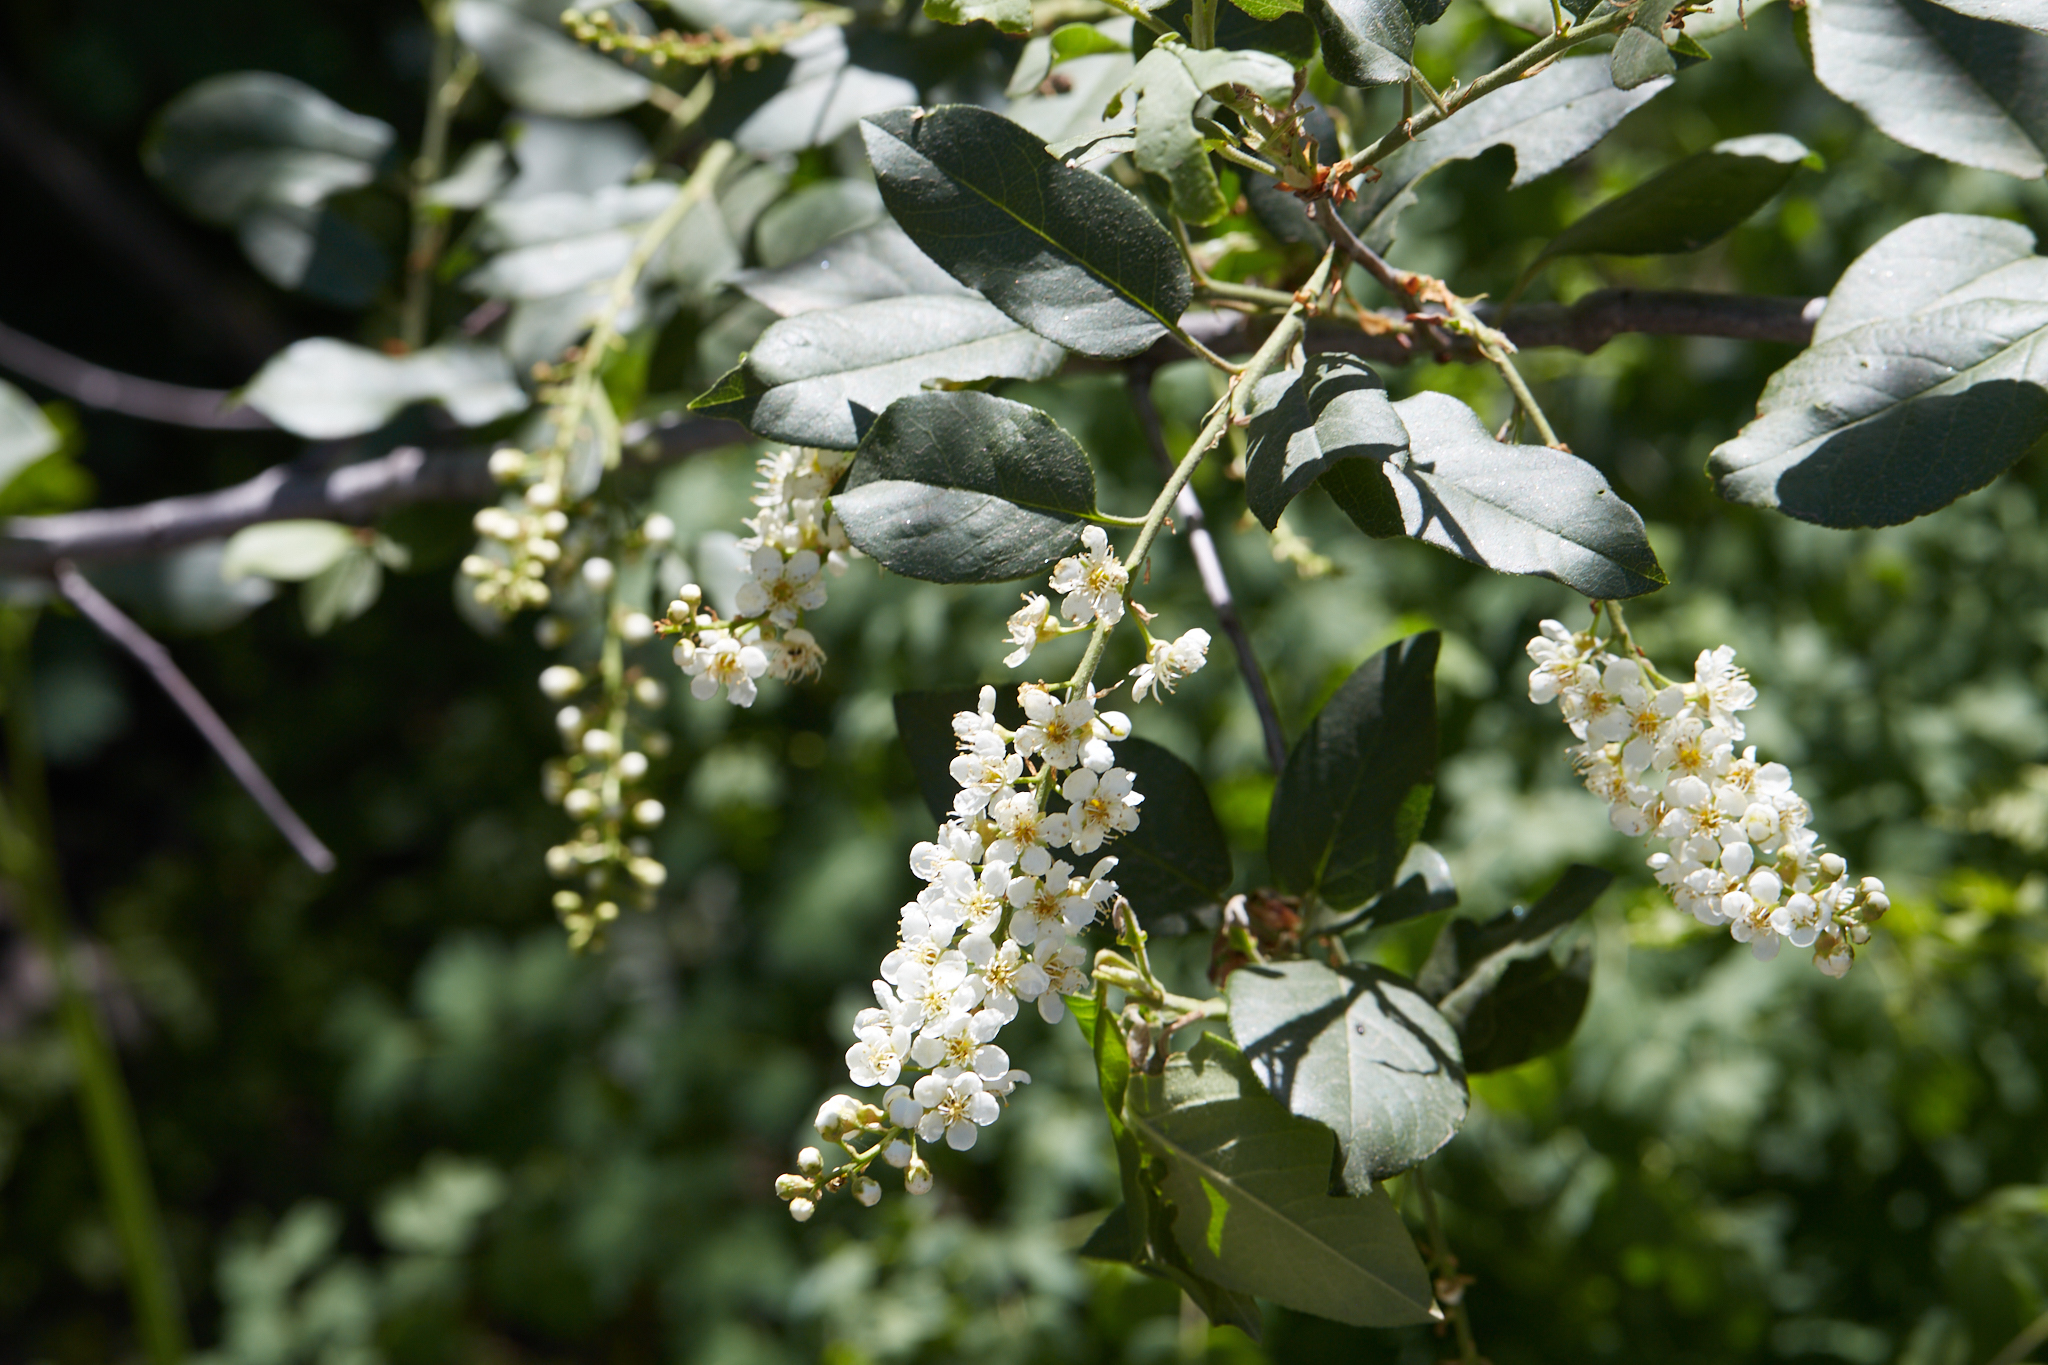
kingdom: Plantae
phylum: Tracheophyta
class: Magnoliopsida
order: Rosales
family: Rosaceae
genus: Prunus
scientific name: Prunus virginiana
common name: Chokecherry
